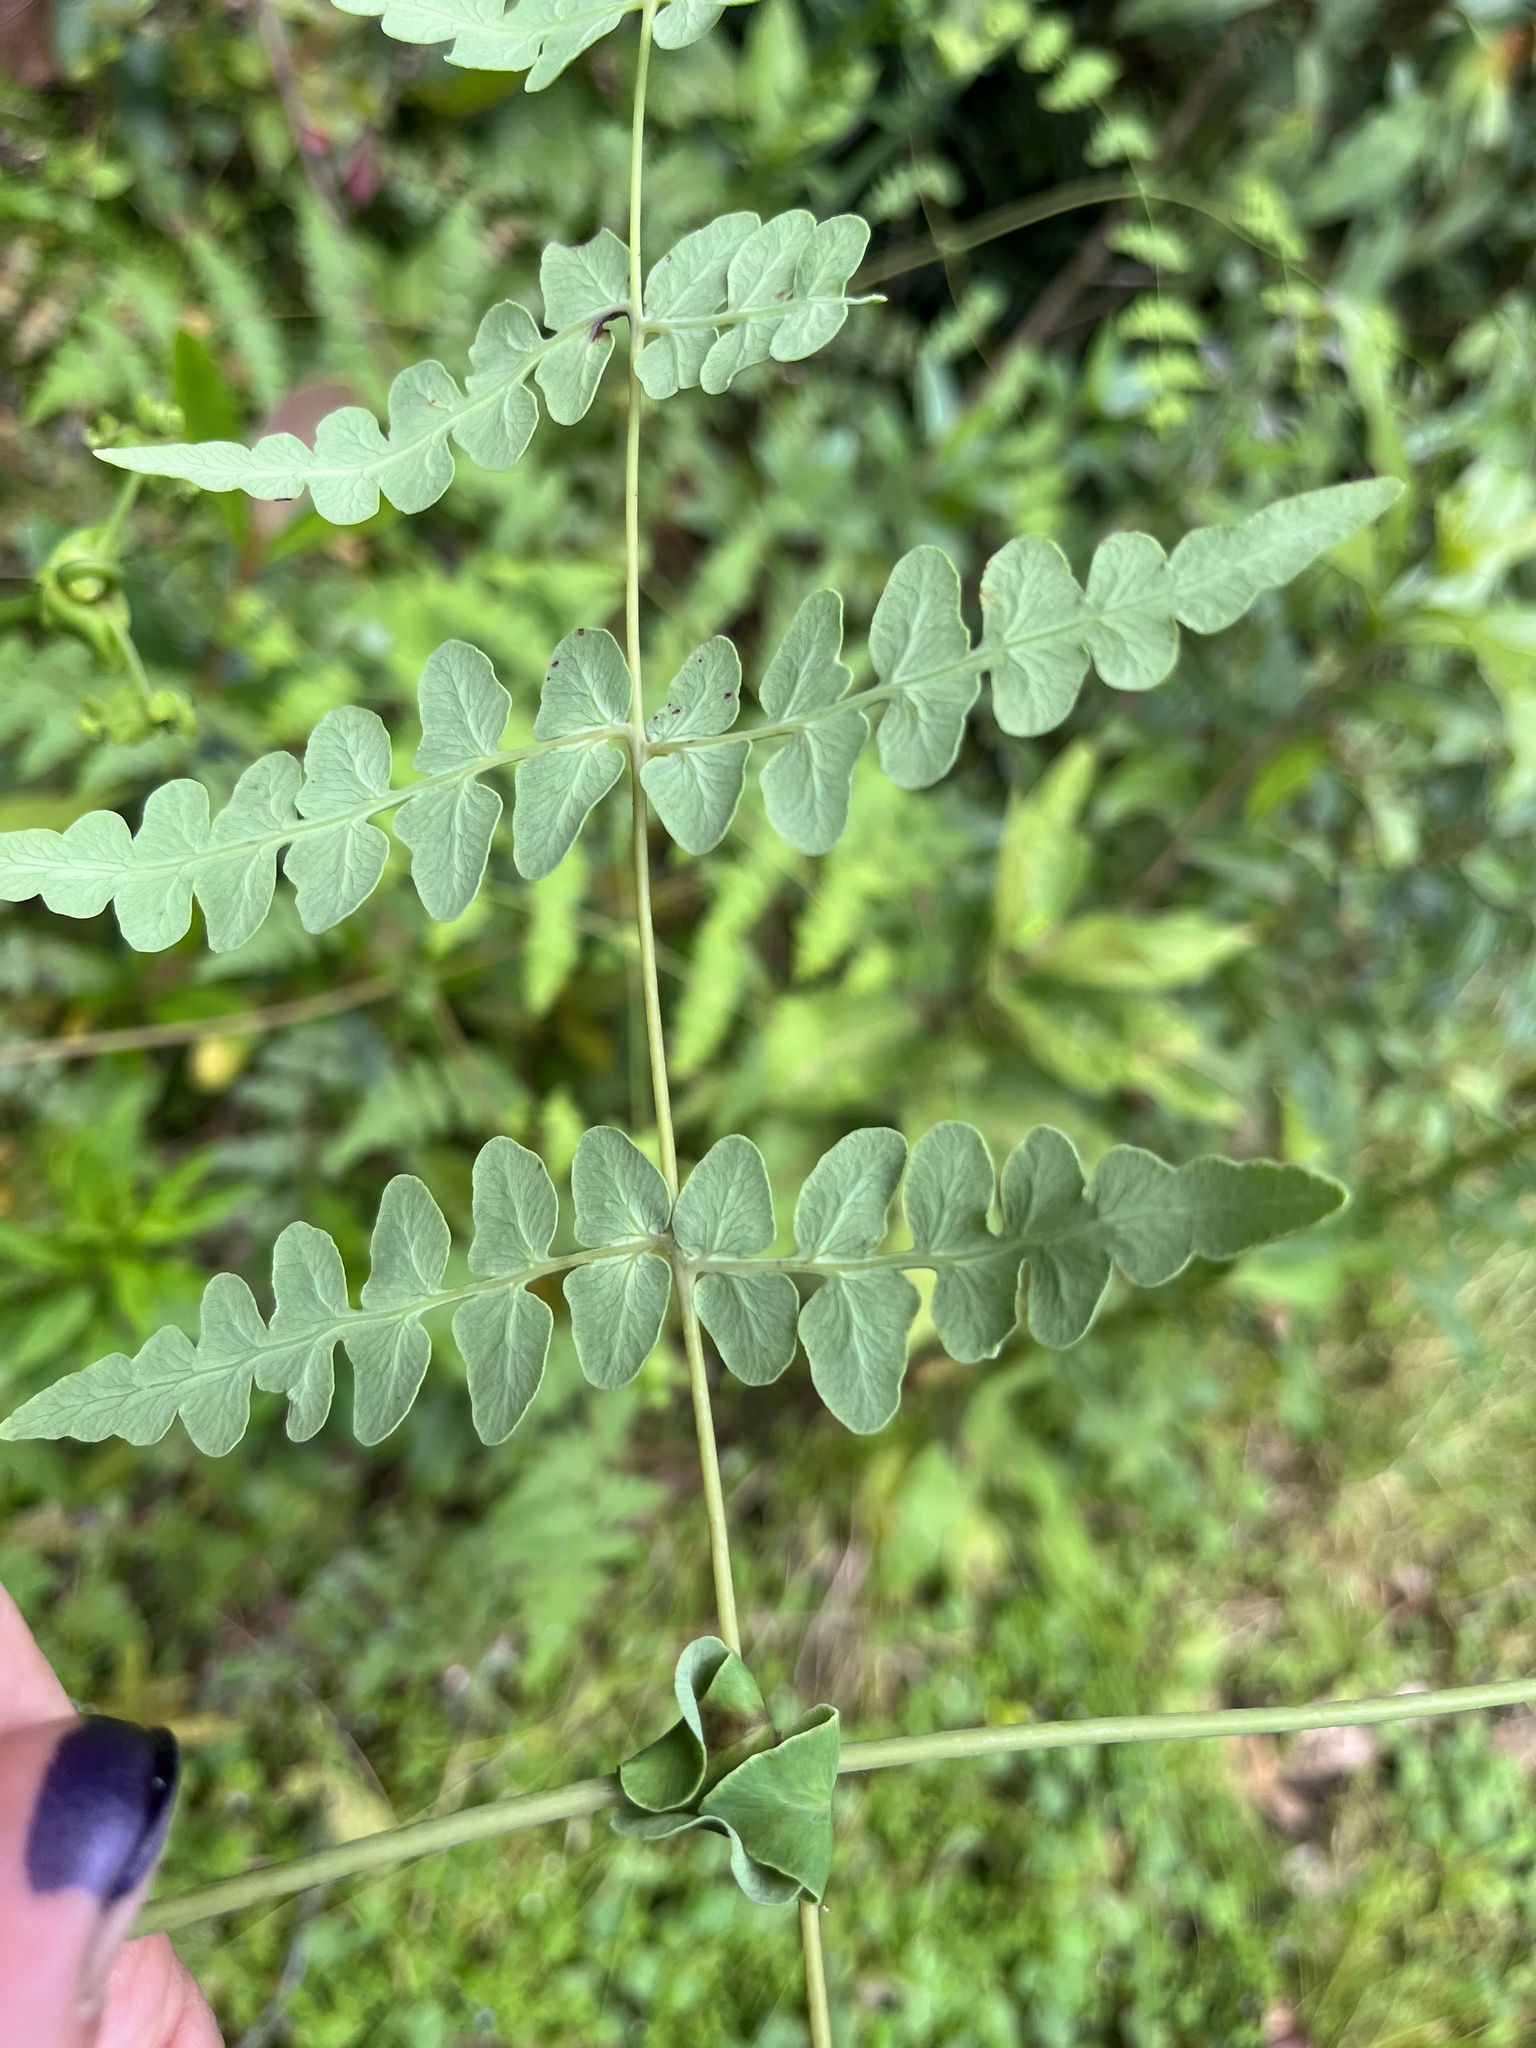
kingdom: Plantae
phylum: Tracheophyta
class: Polypodiopsida
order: Polypodiales
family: Dennstaedtiaceae
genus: Histiopteris
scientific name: Histiopteris incisa
